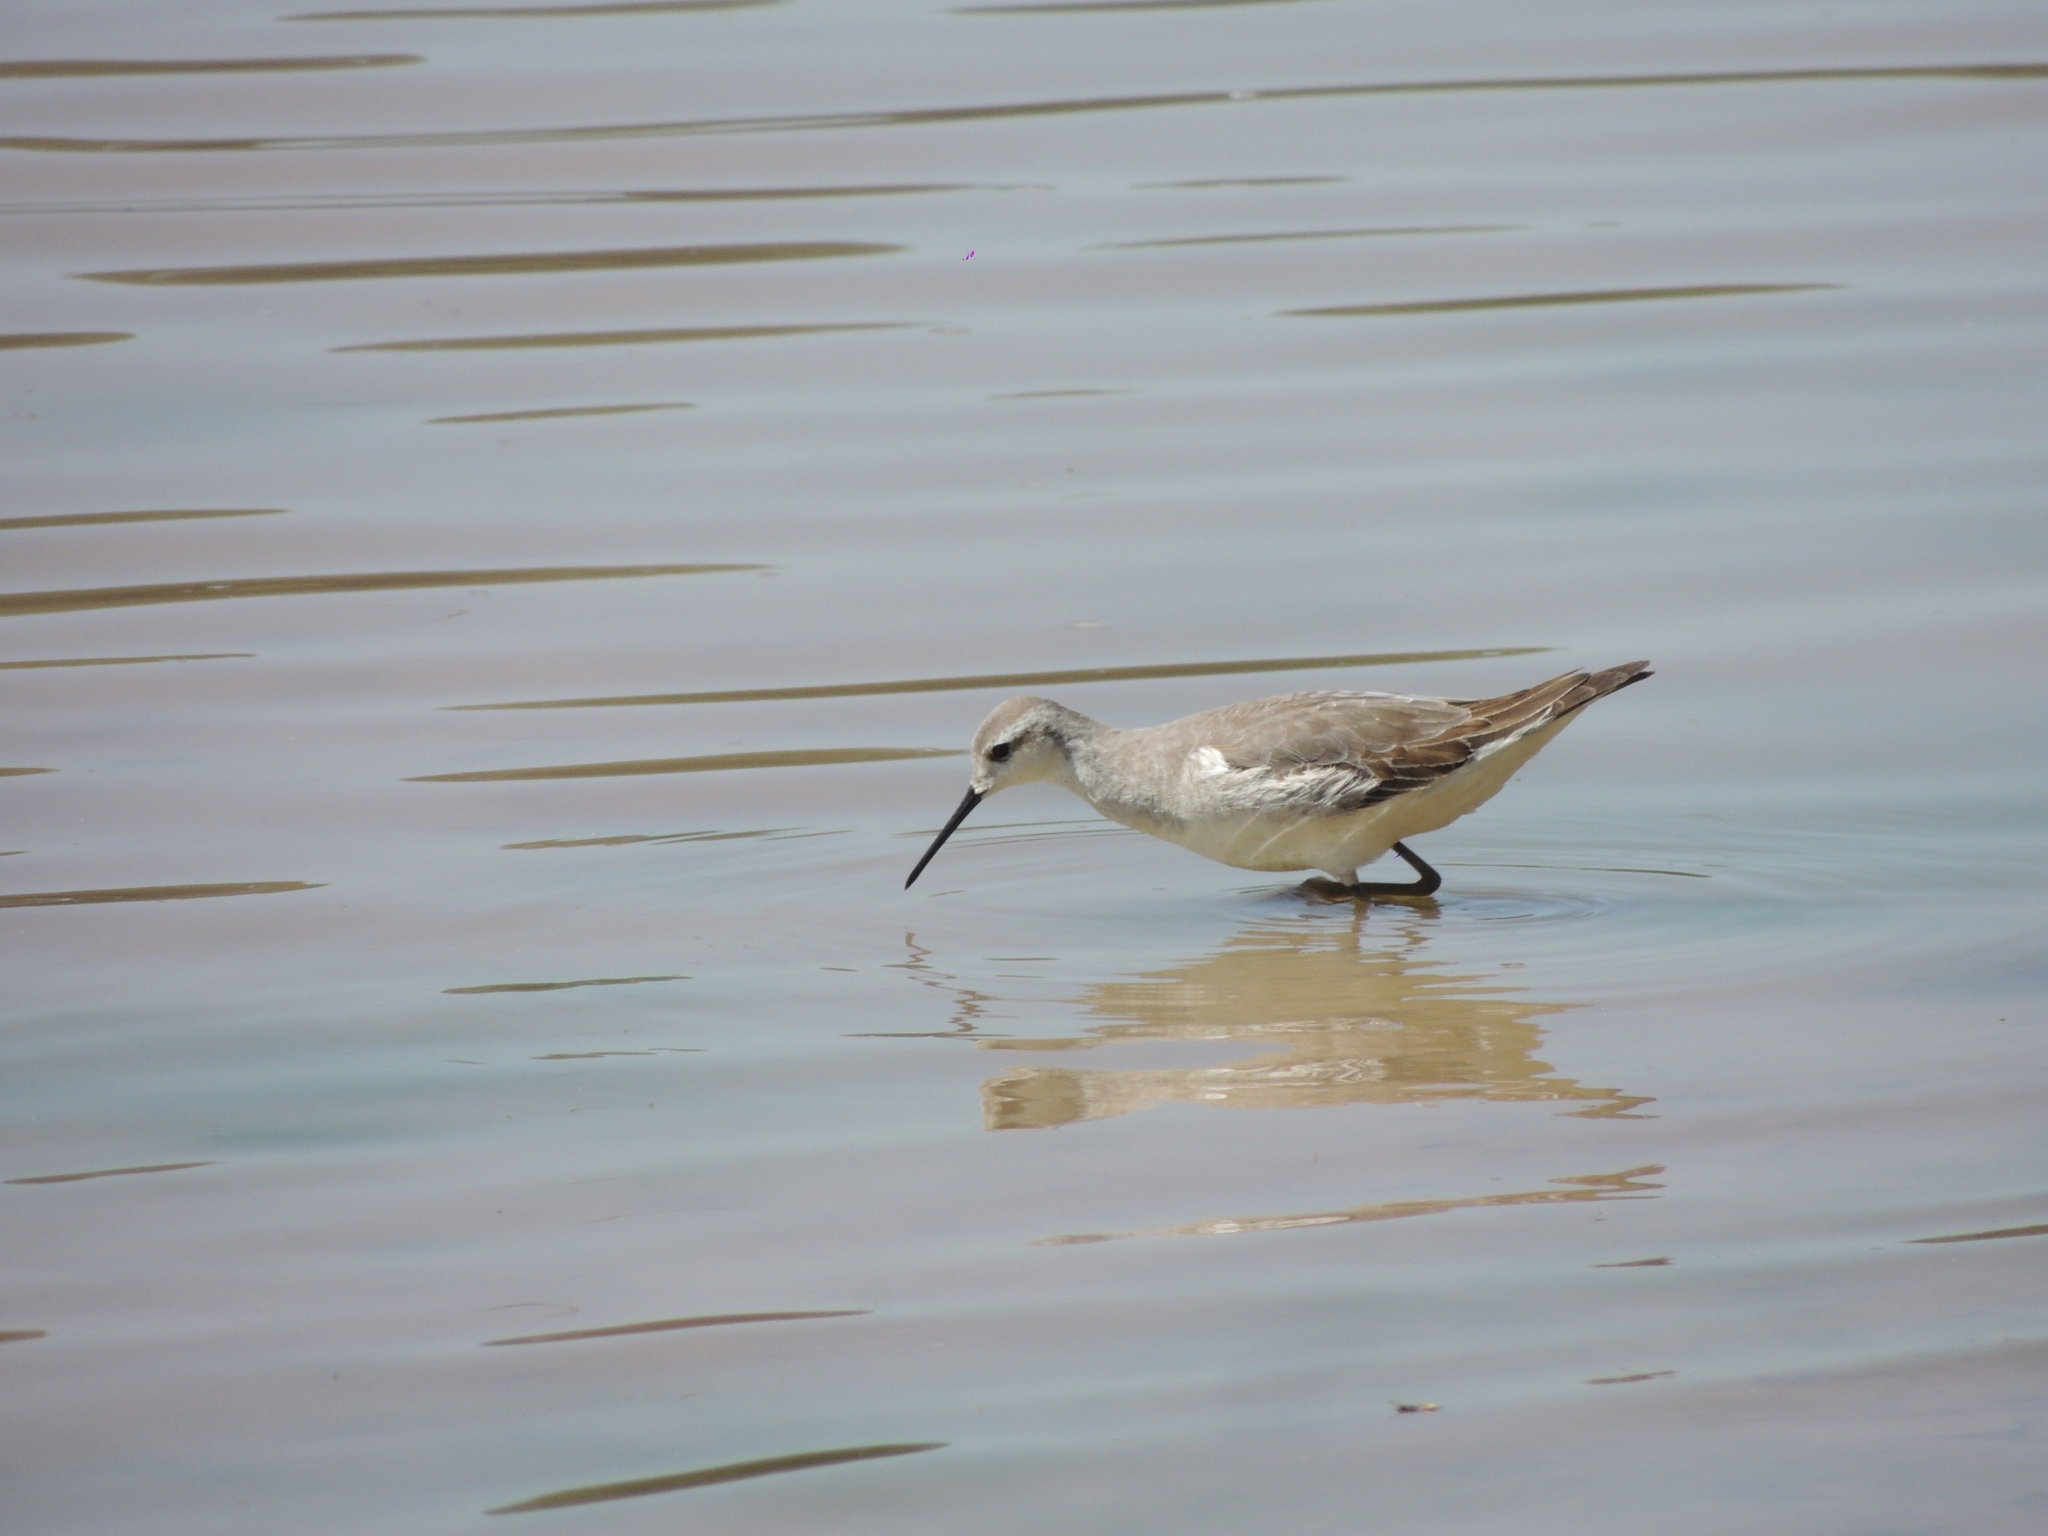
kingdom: Animalia
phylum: Chordata
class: Aves
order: Charadriiformes
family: Scolopacidae
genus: Phalaropus
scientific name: Phalaropus tricolor
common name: Wilson's phalarope
